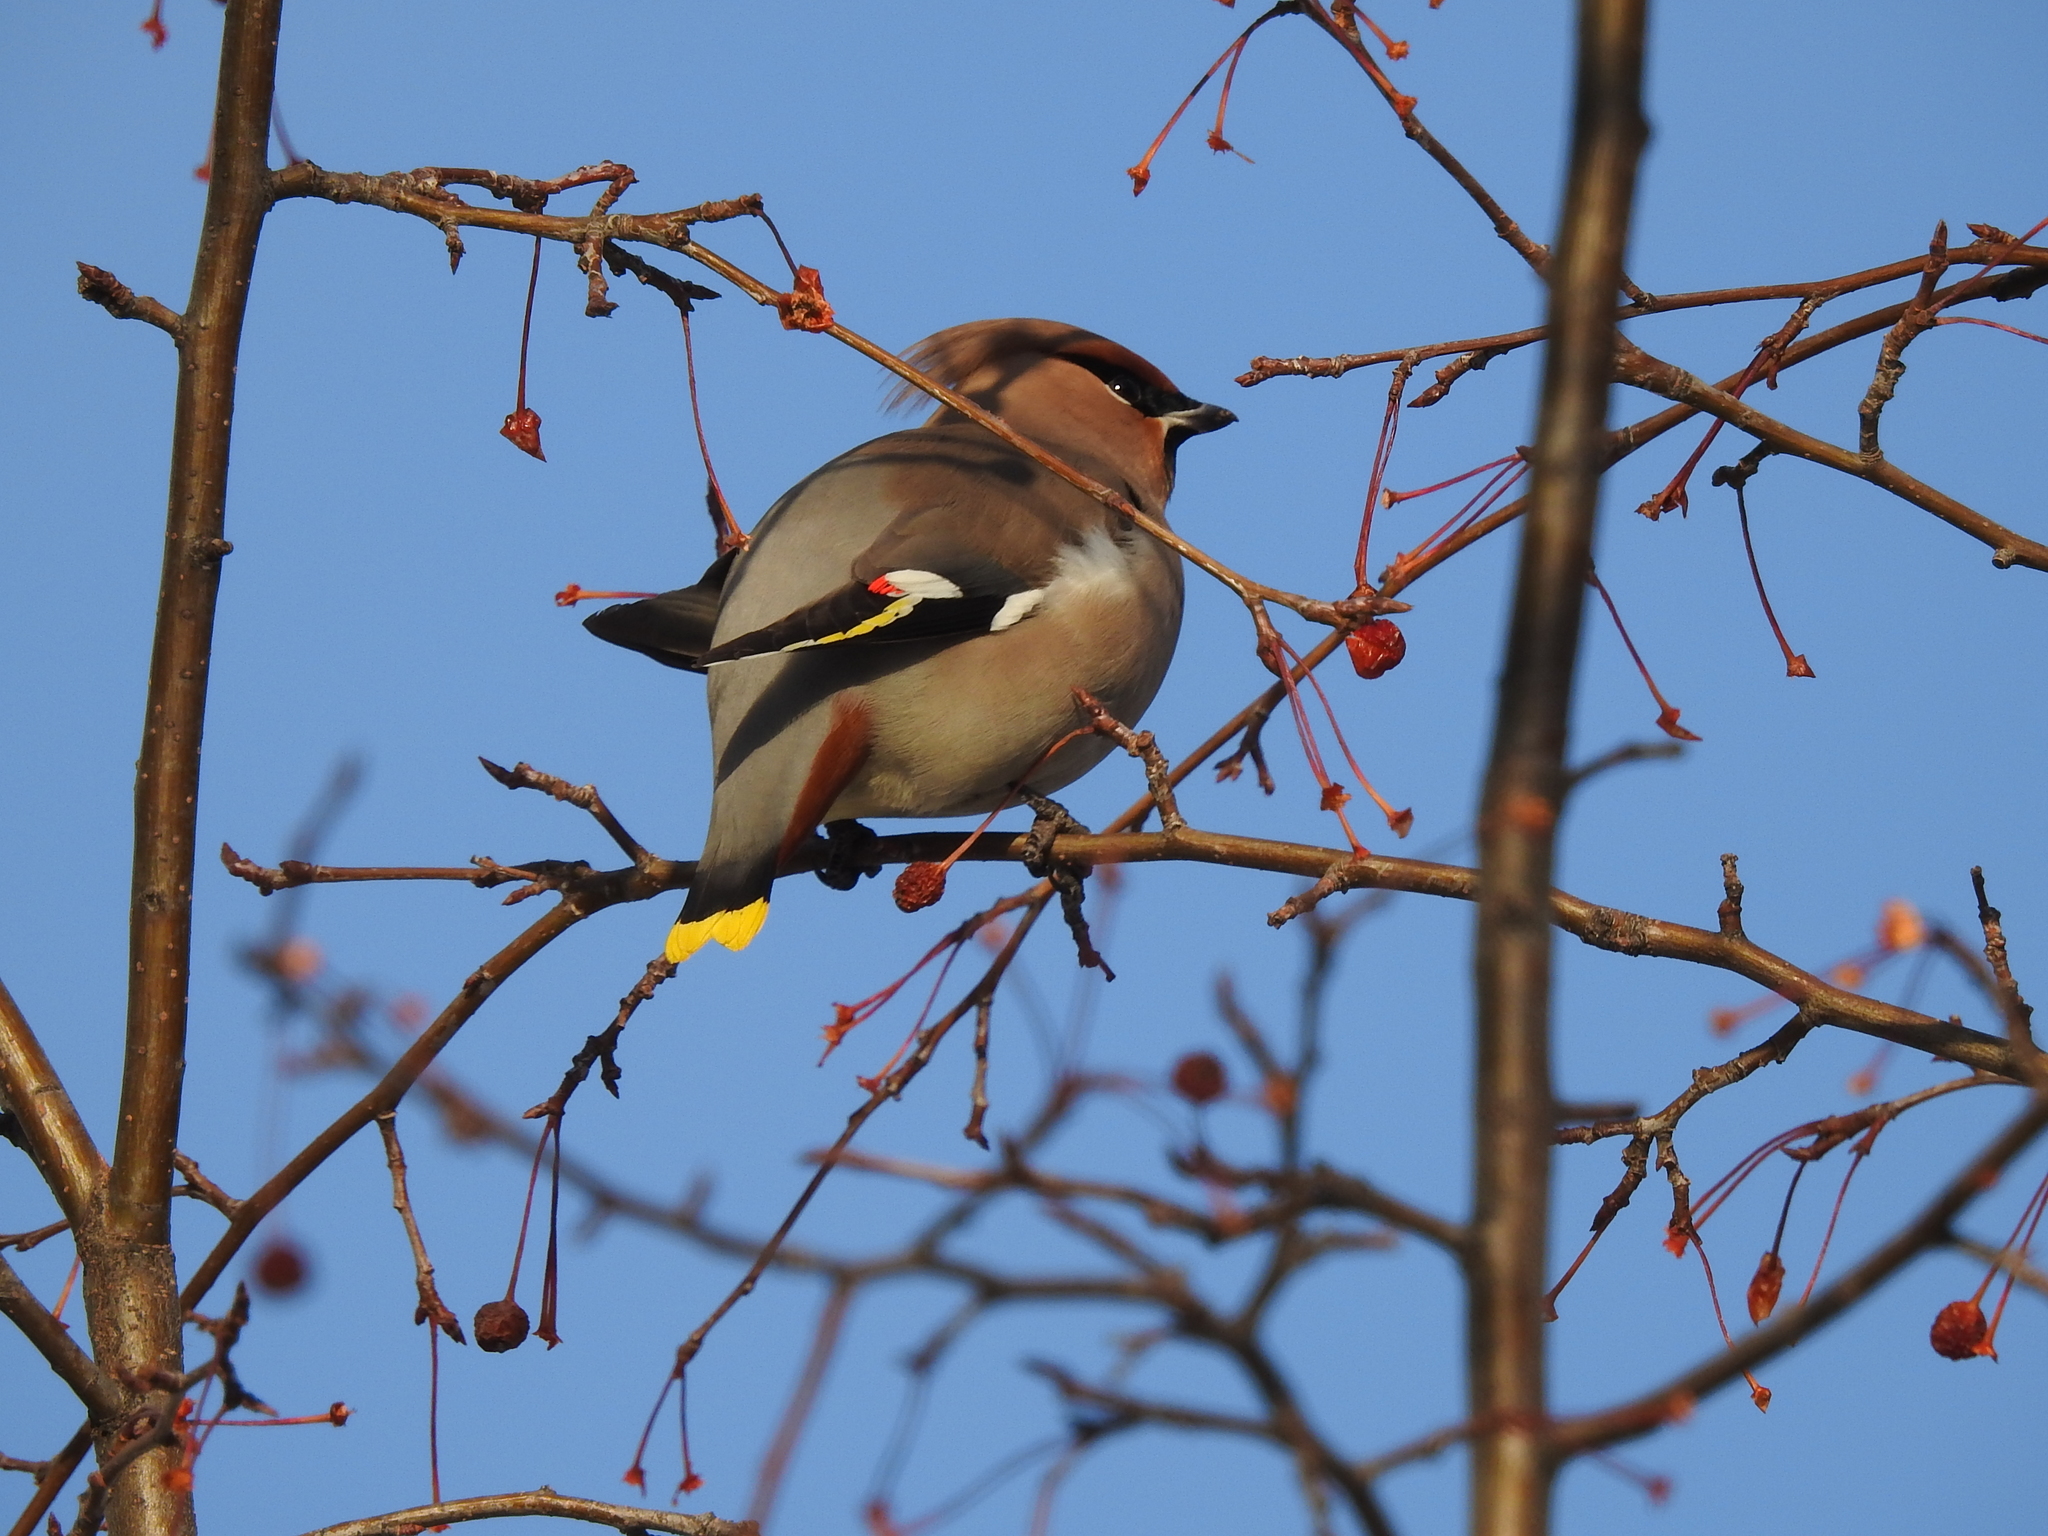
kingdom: Animalia
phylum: Chordata
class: Aves
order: Passeriformes
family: Bombycillidae
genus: Bombycilla
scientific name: Bombycilla garrulus
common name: Bohemian waxwing
